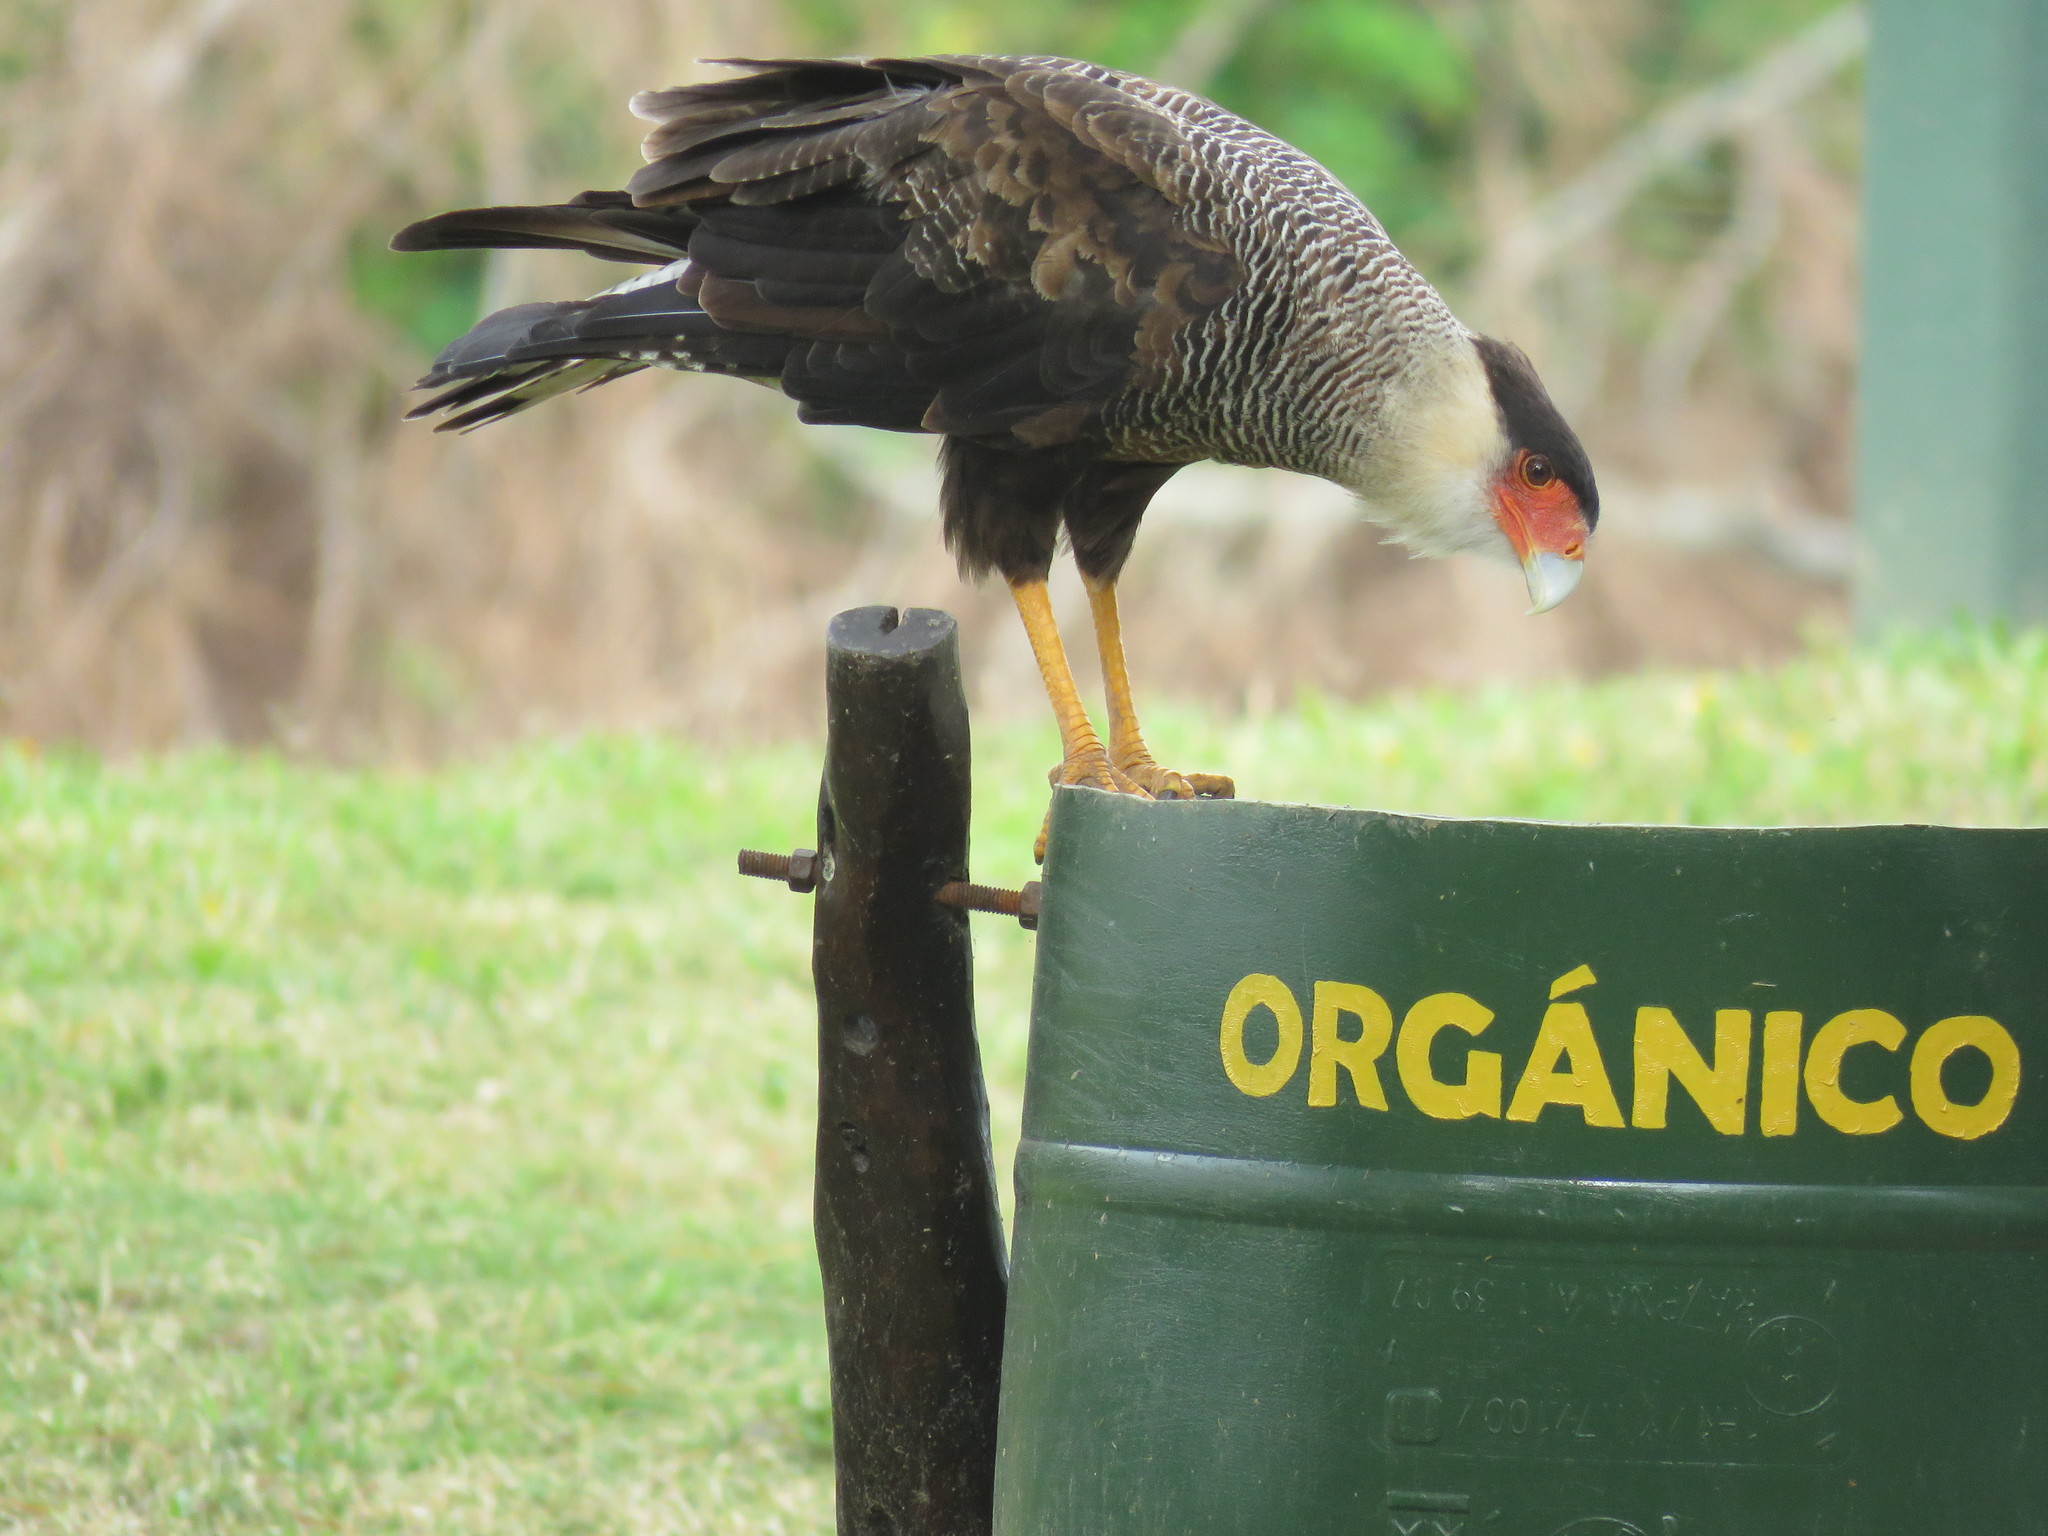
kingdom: Animalia
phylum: Chordata
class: Aves
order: Falconiformes
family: Falconidae
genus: Caracara
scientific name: Caracara plancus
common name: Southern caracara
